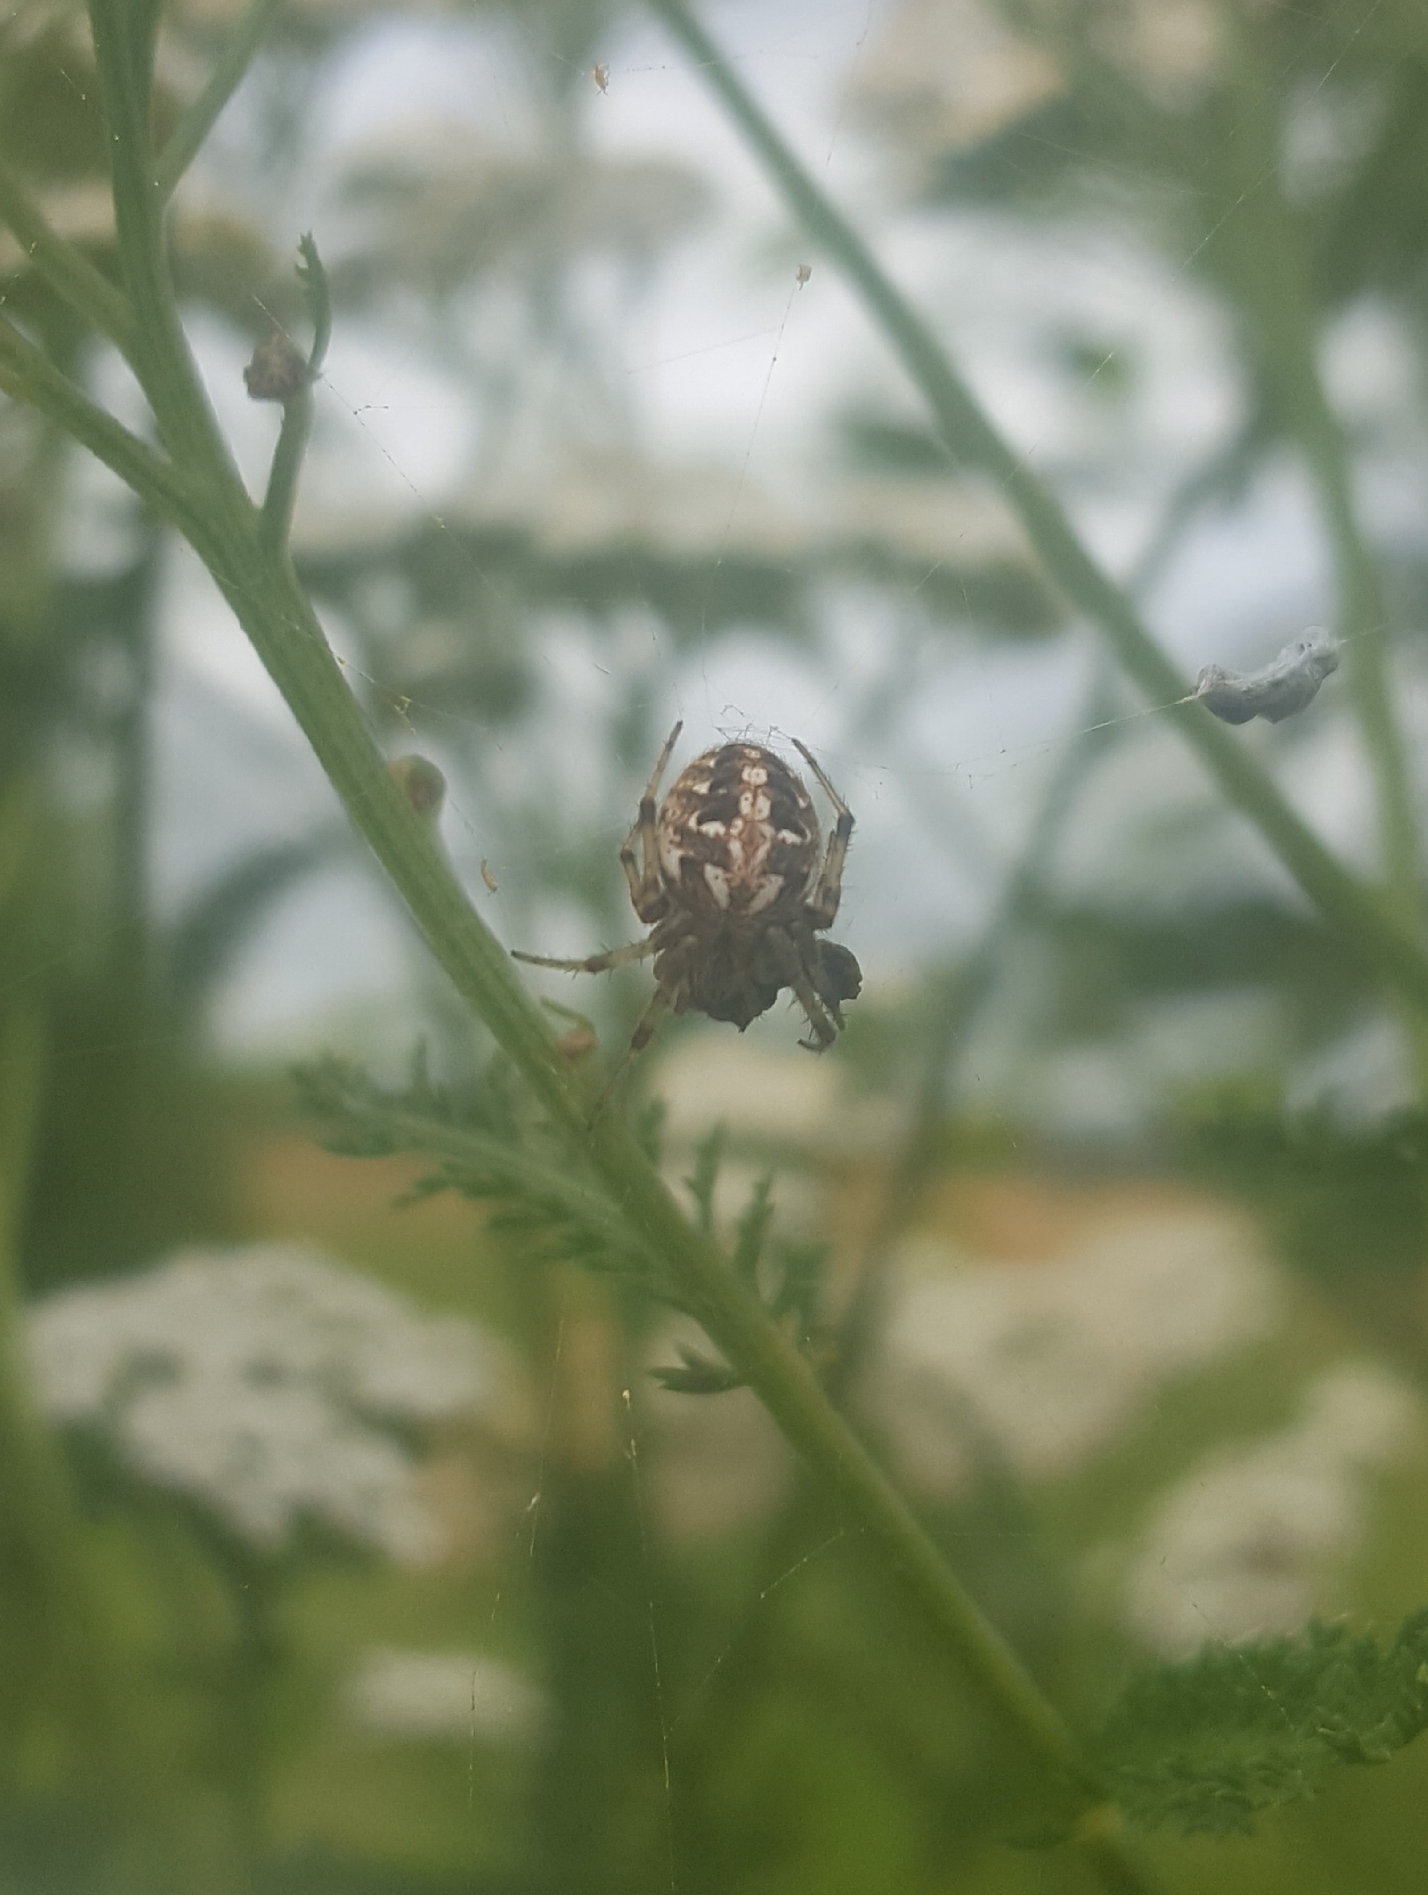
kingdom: Animalia
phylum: Arthropoda
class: Arachnida
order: Araneae
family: Araneidae
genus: Neoscona
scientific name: Neoscona arabesca
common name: Orb weavers
